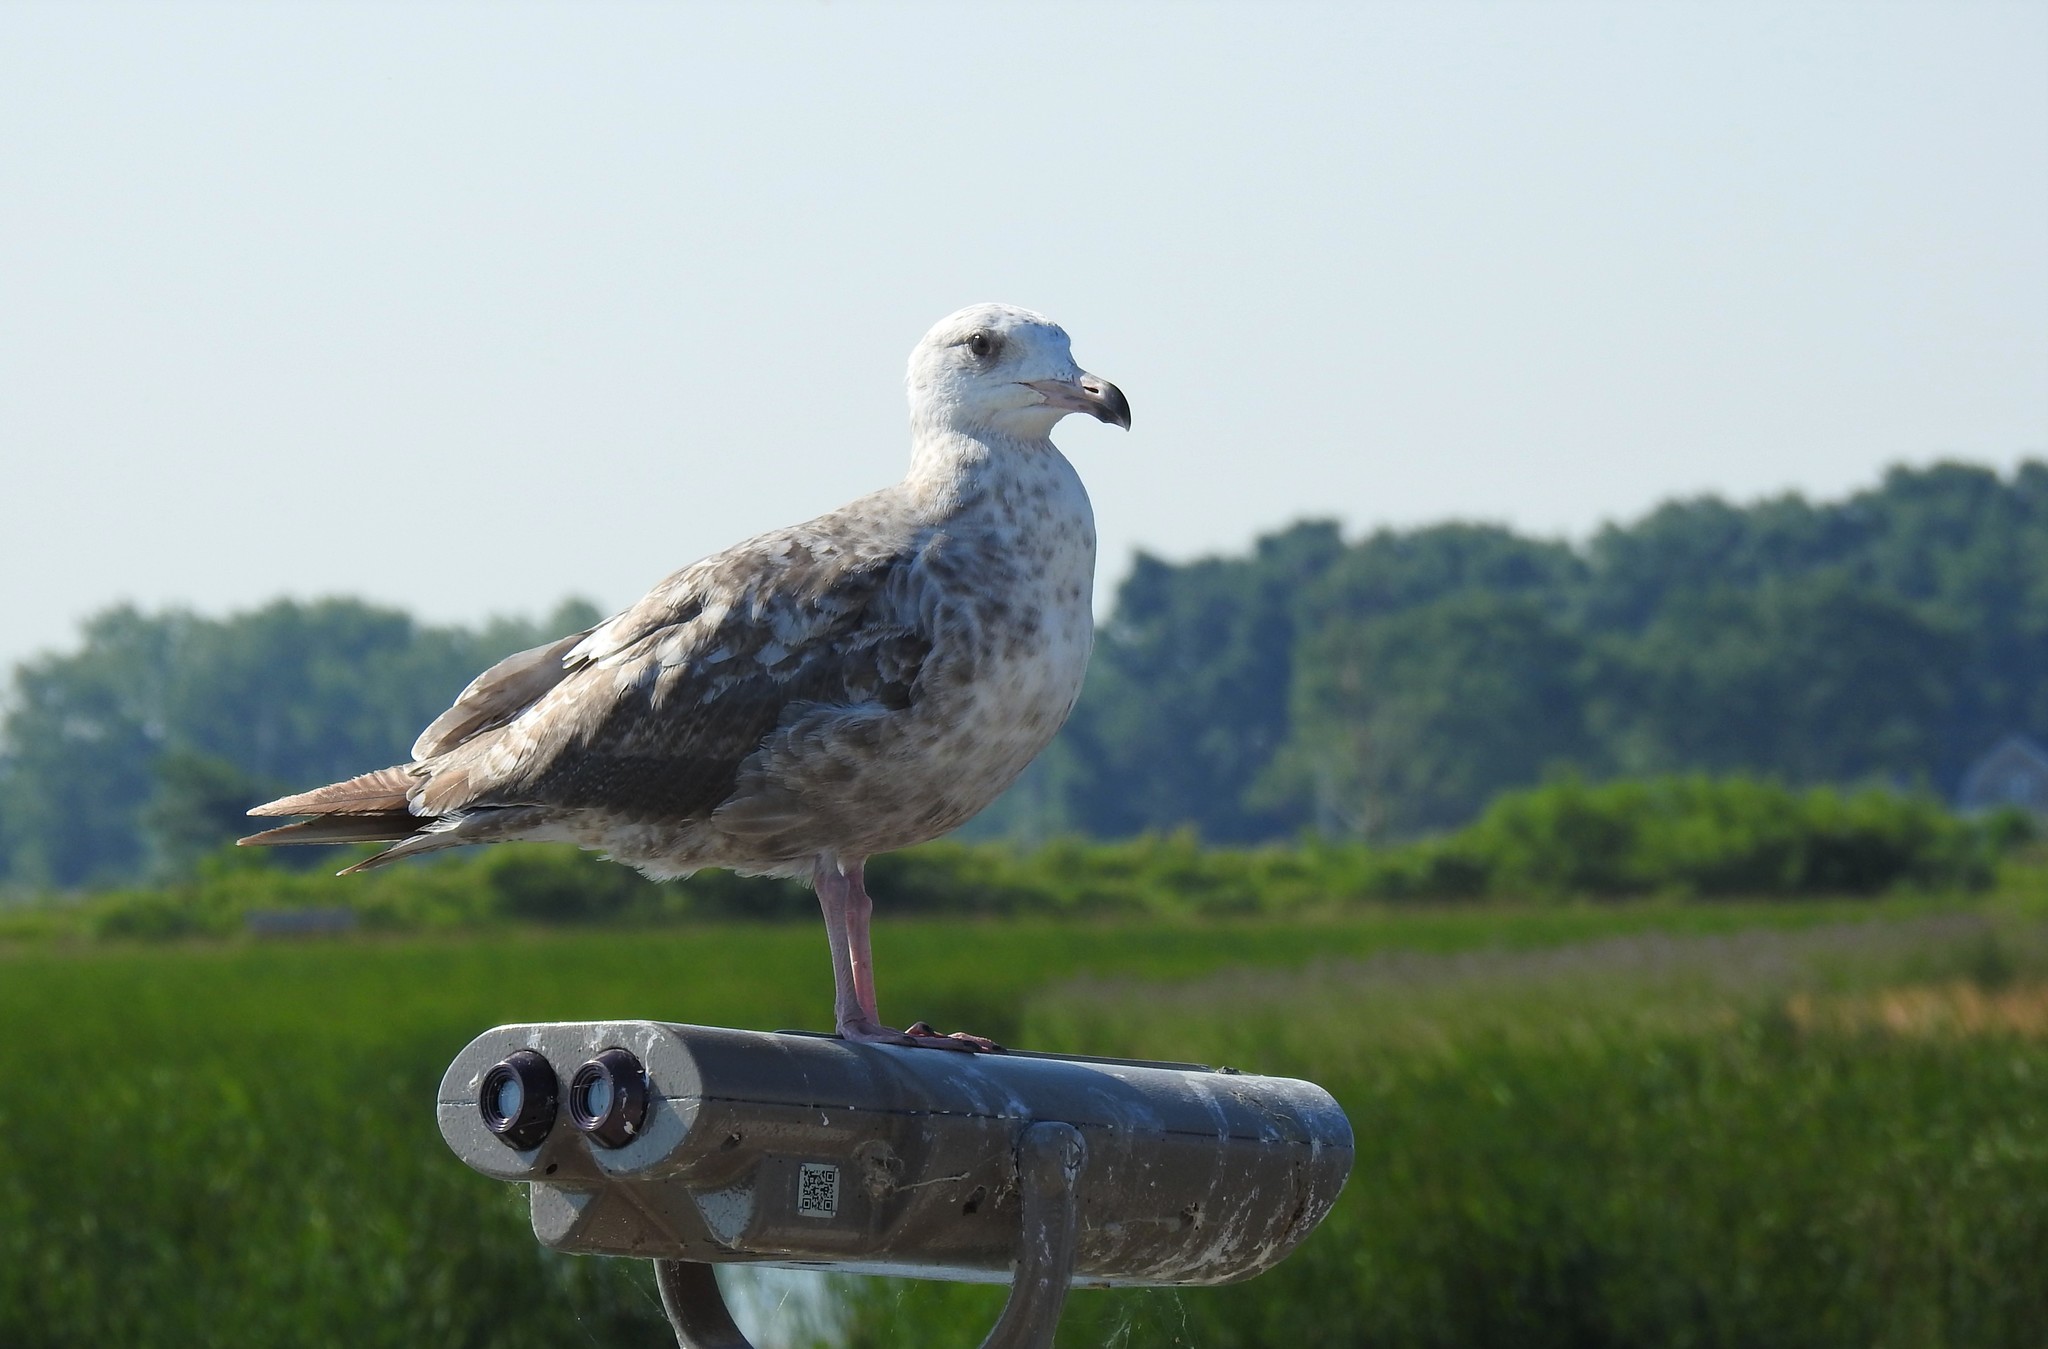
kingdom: Animalia
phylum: Chordata
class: Aves
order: Charadriiformes
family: Laridae
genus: Larus
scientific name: Larus argentatus
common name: Herring gull
